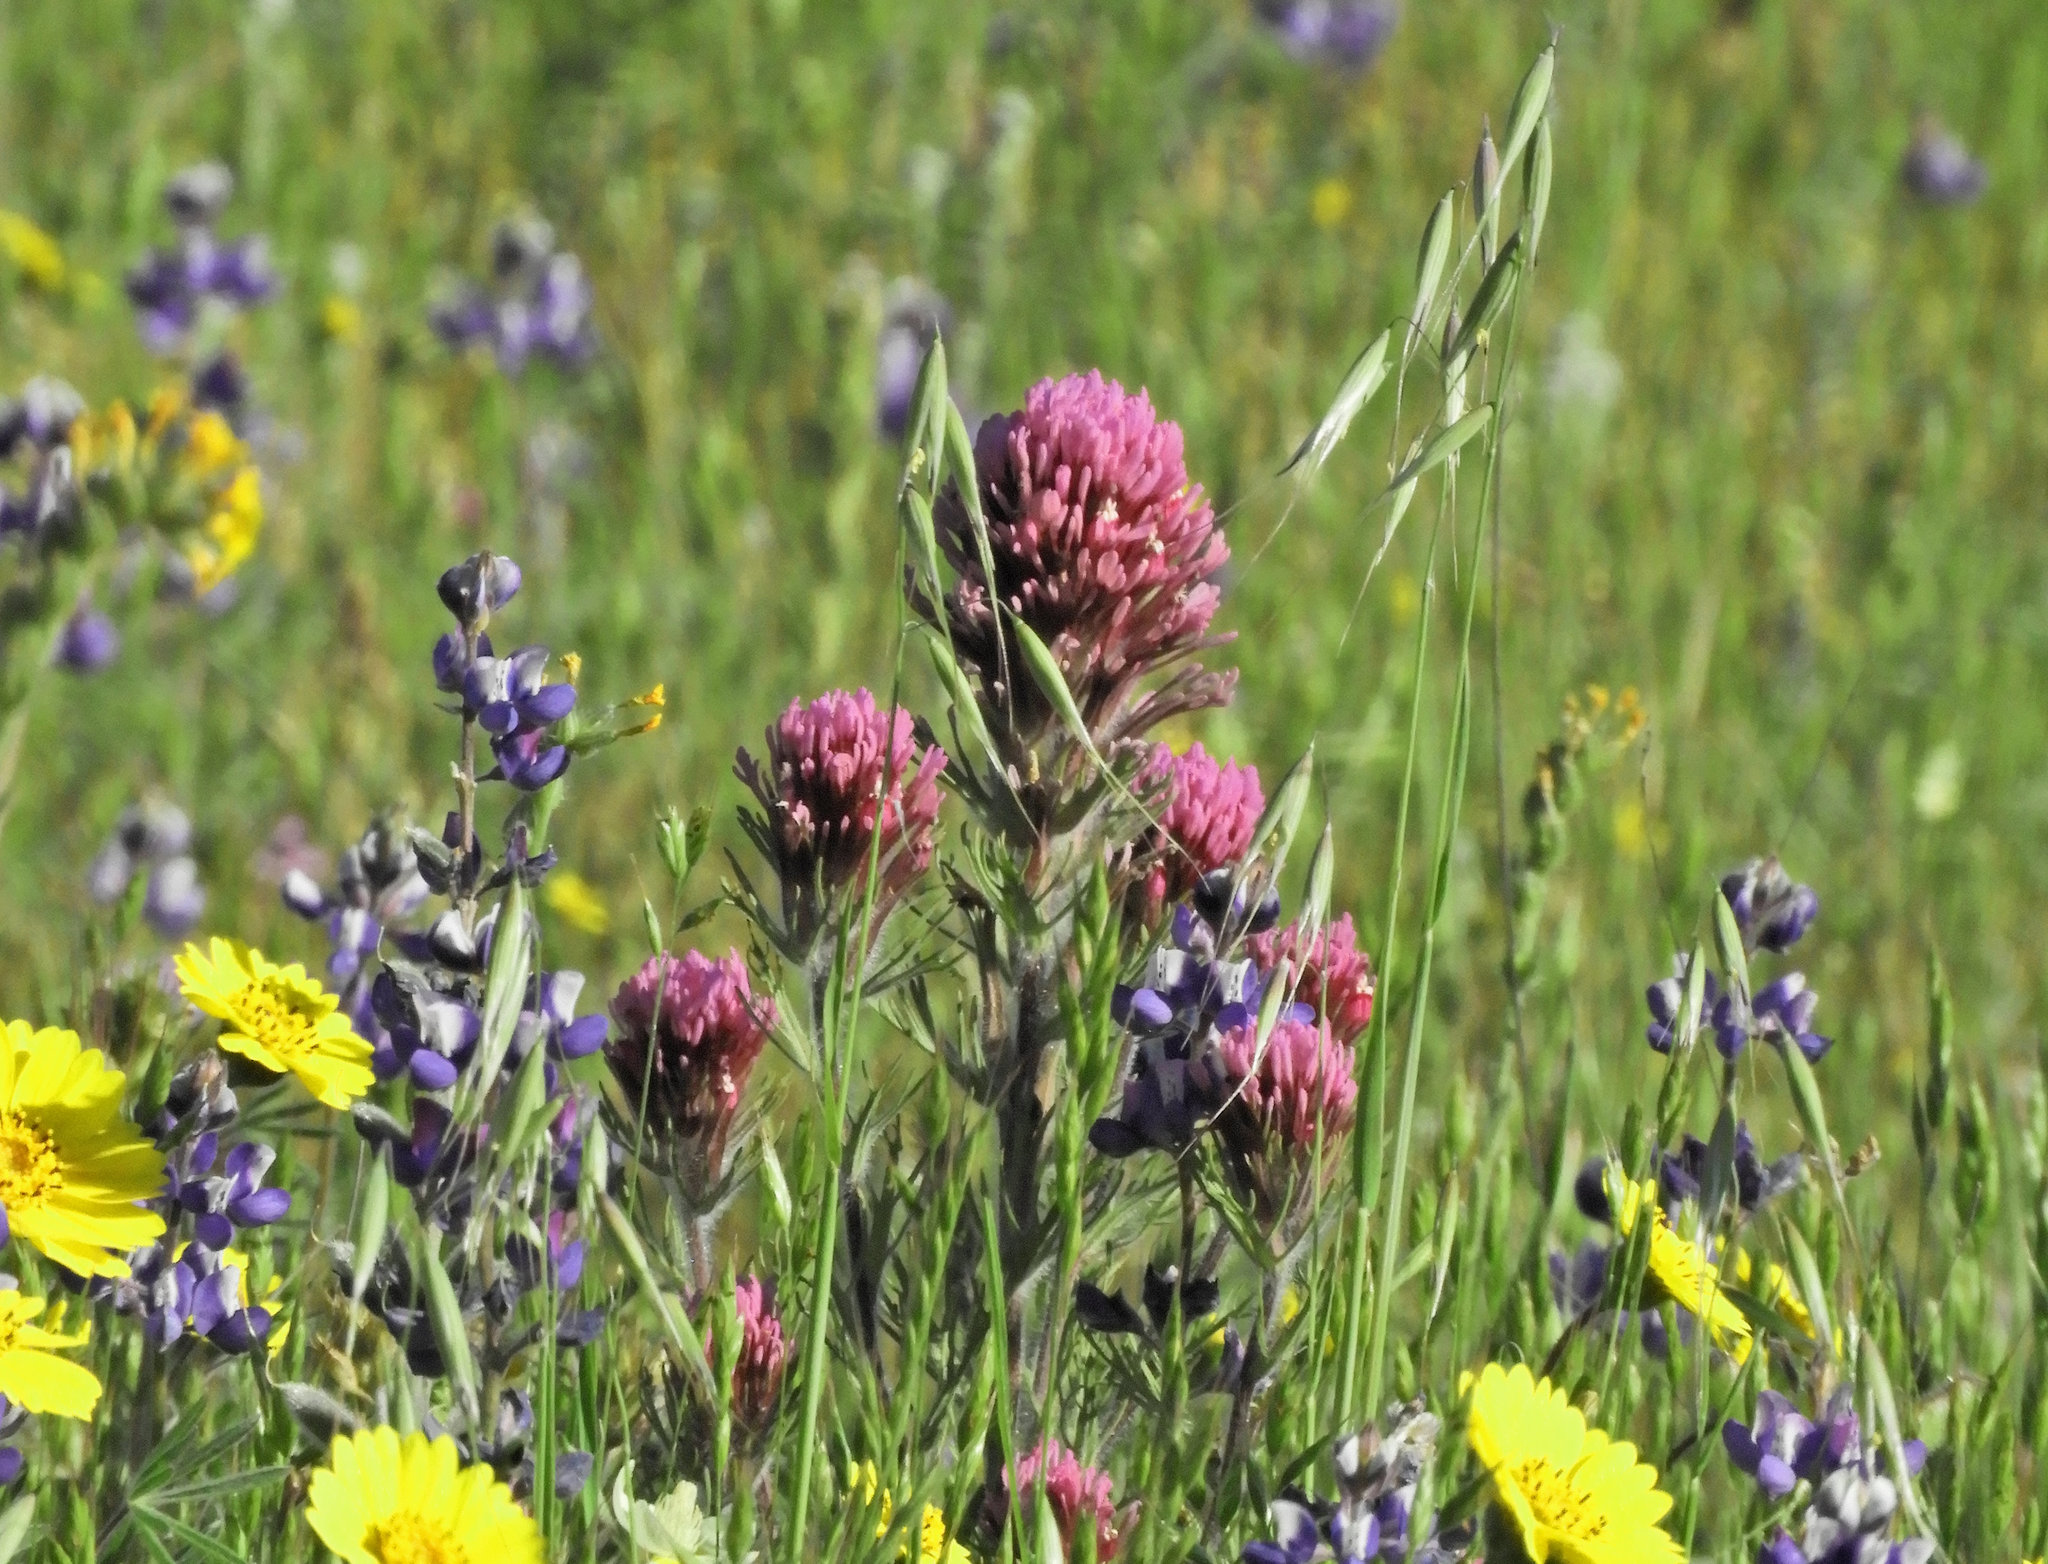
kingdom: Plantae
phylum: Tracheophyta
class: Magnoliopsida
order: Lamiales
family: Orobanchaceae
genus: Castilleja
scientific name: Castilleja exserta
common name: Purple owl-clover
